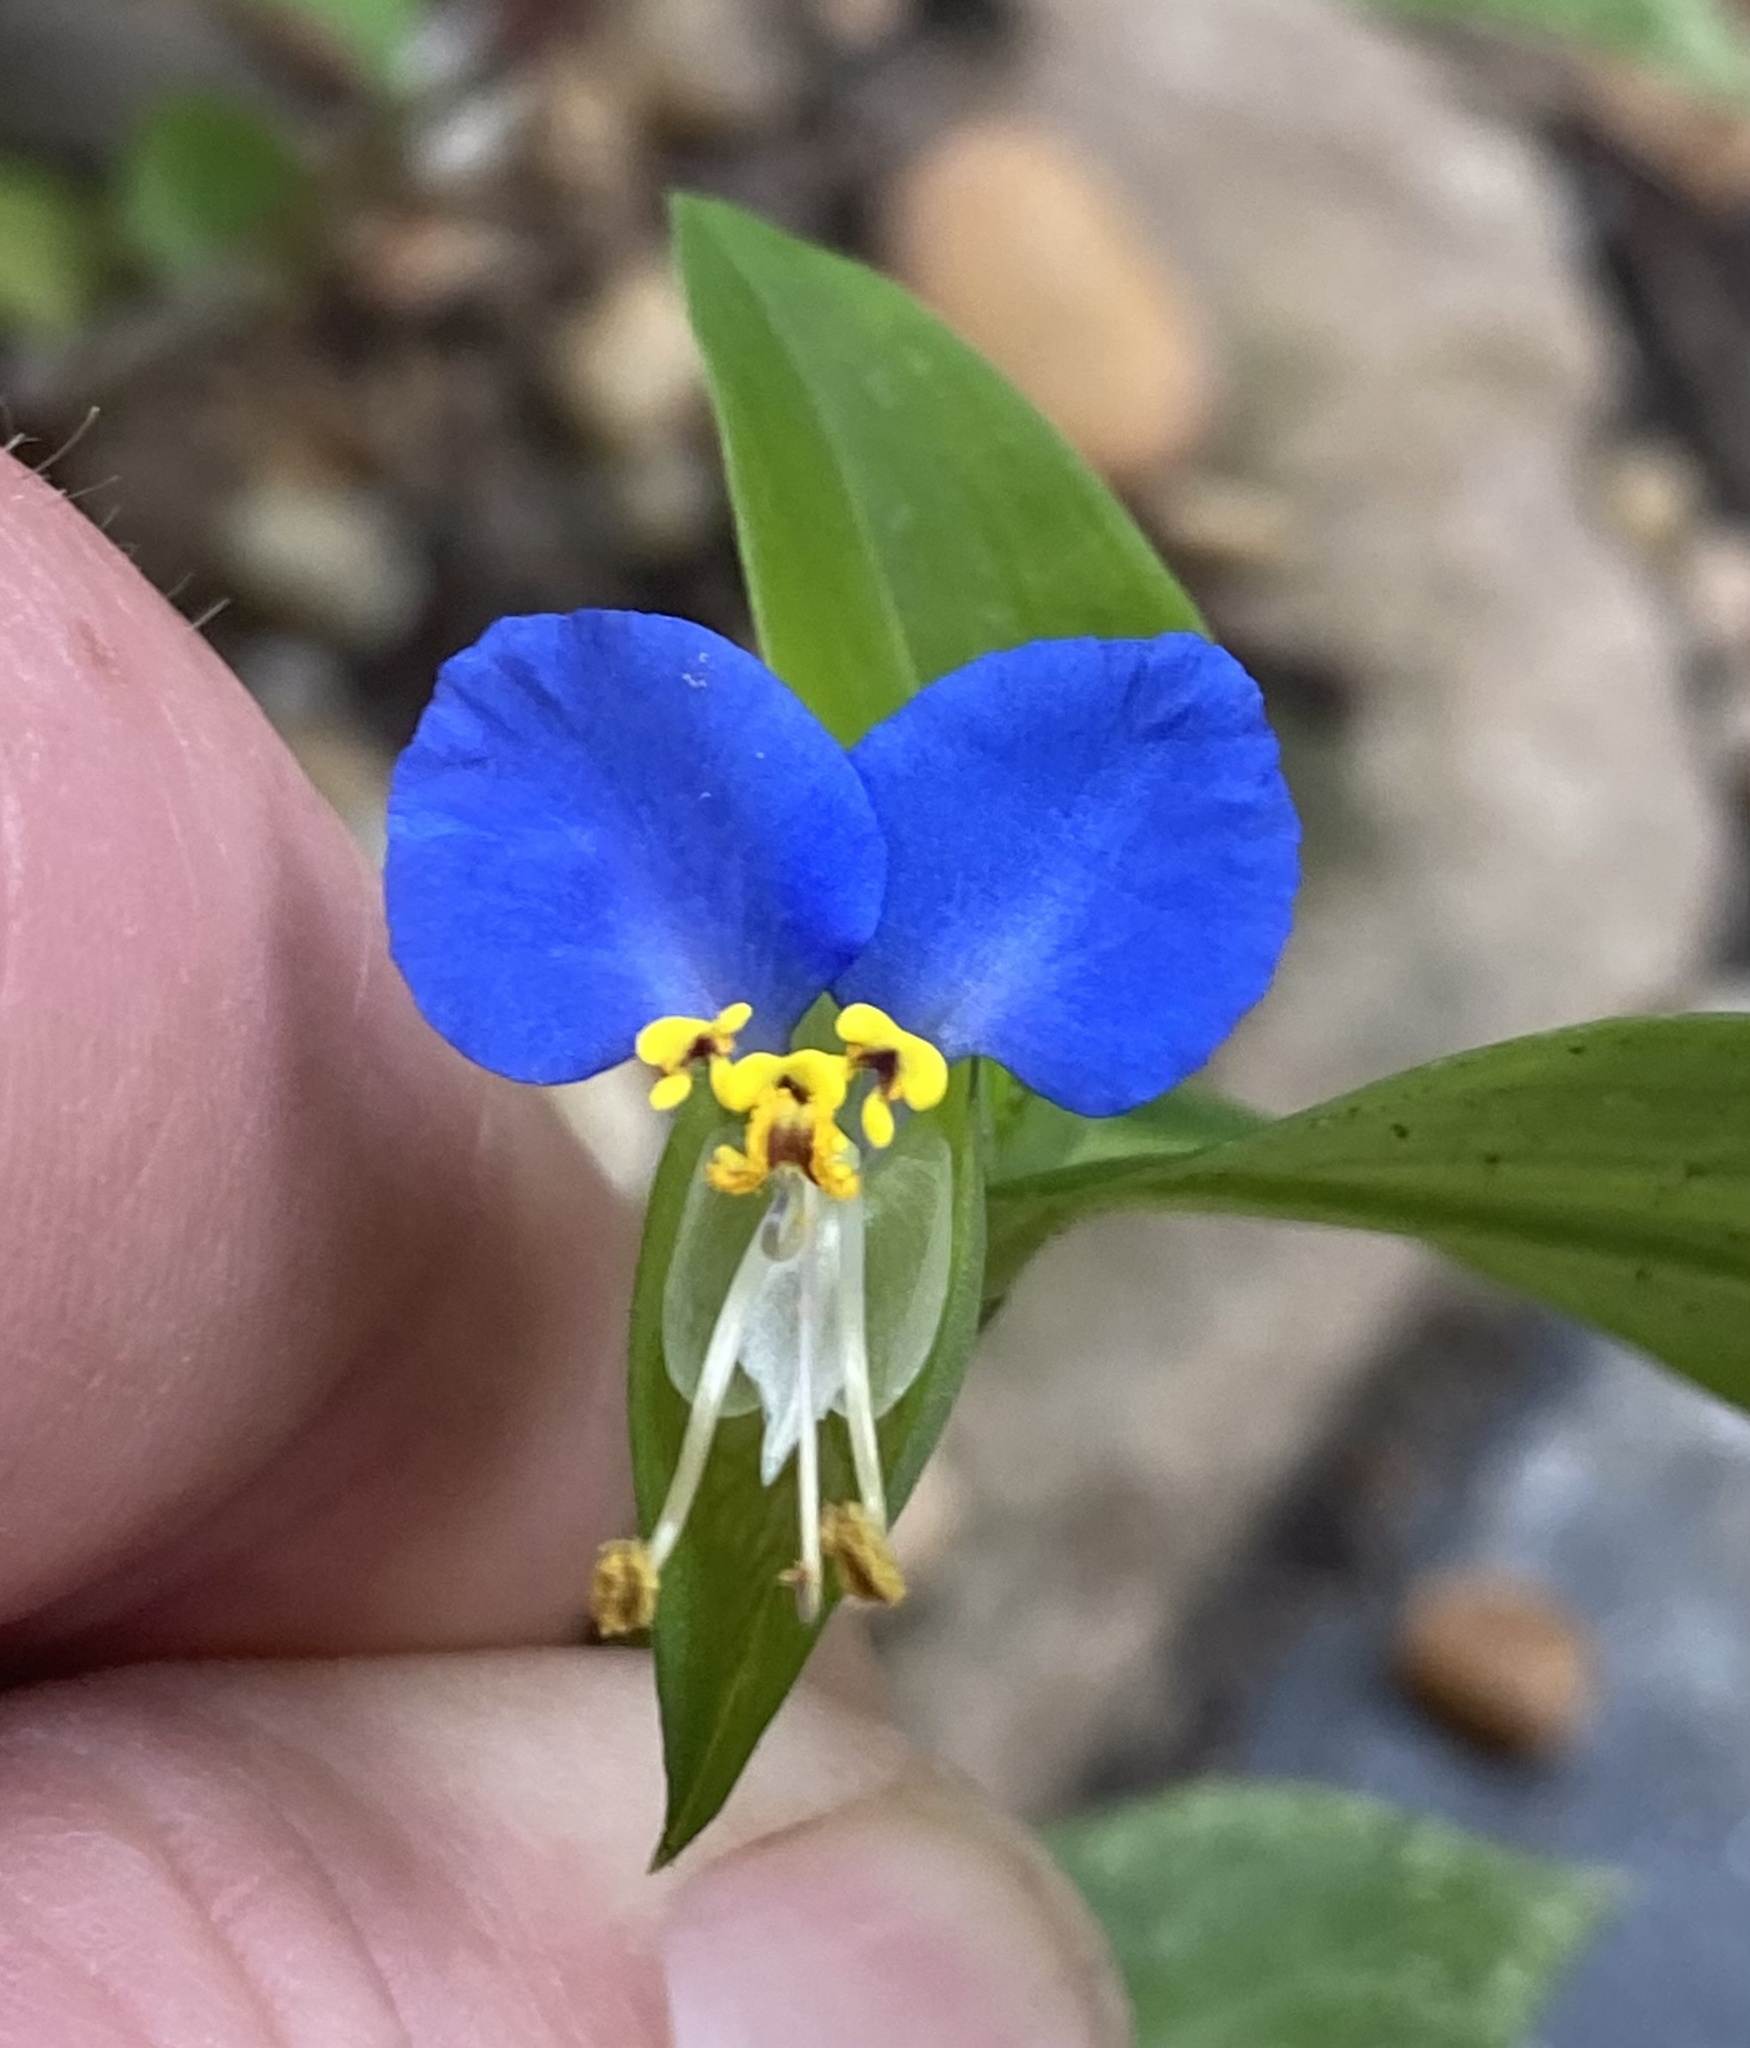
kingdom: Plantae
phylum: Tracheophyta
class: Liliopsida
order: Commelinales
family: Commelinaceae
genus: Commelina
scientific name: Commelina communis
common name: Asiatic dayflower
